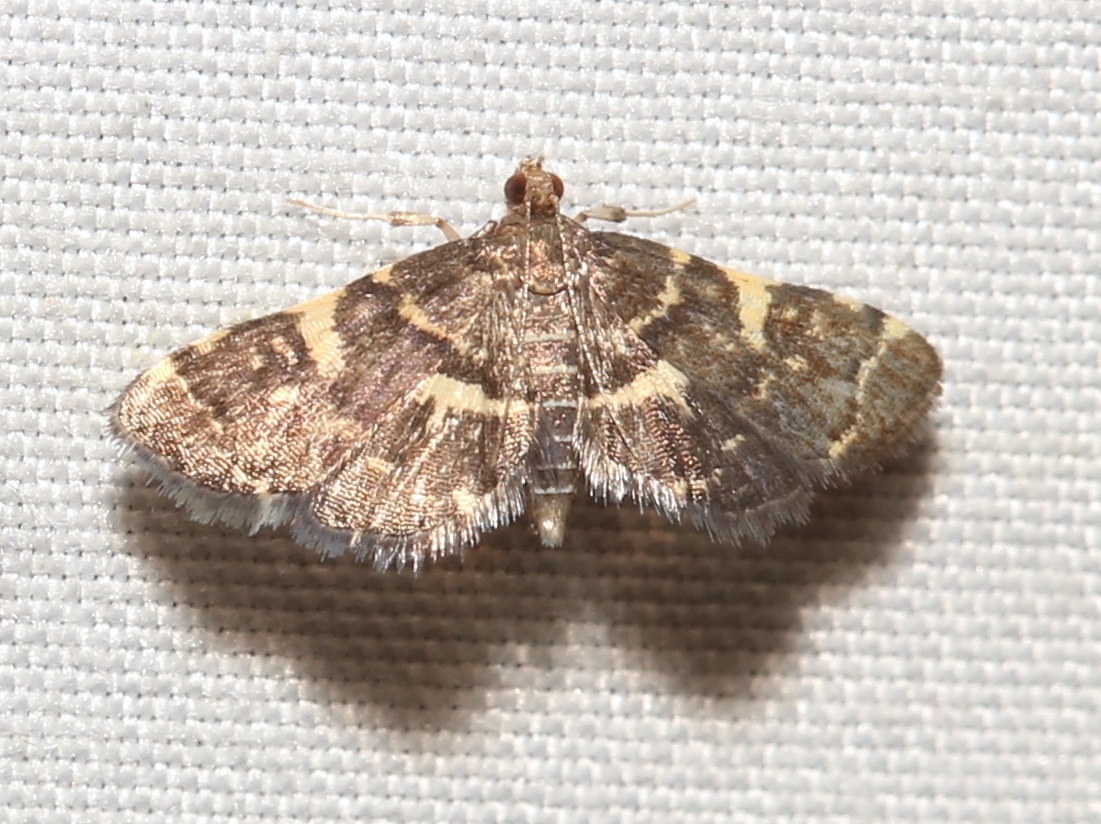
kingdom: Animalia
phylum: Arthropoda
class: Insecta
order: Lepidoptera
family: Crambidae
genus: Anageshna
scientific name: Anageshna primordialis
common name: Yellow-spotted webworm moth
